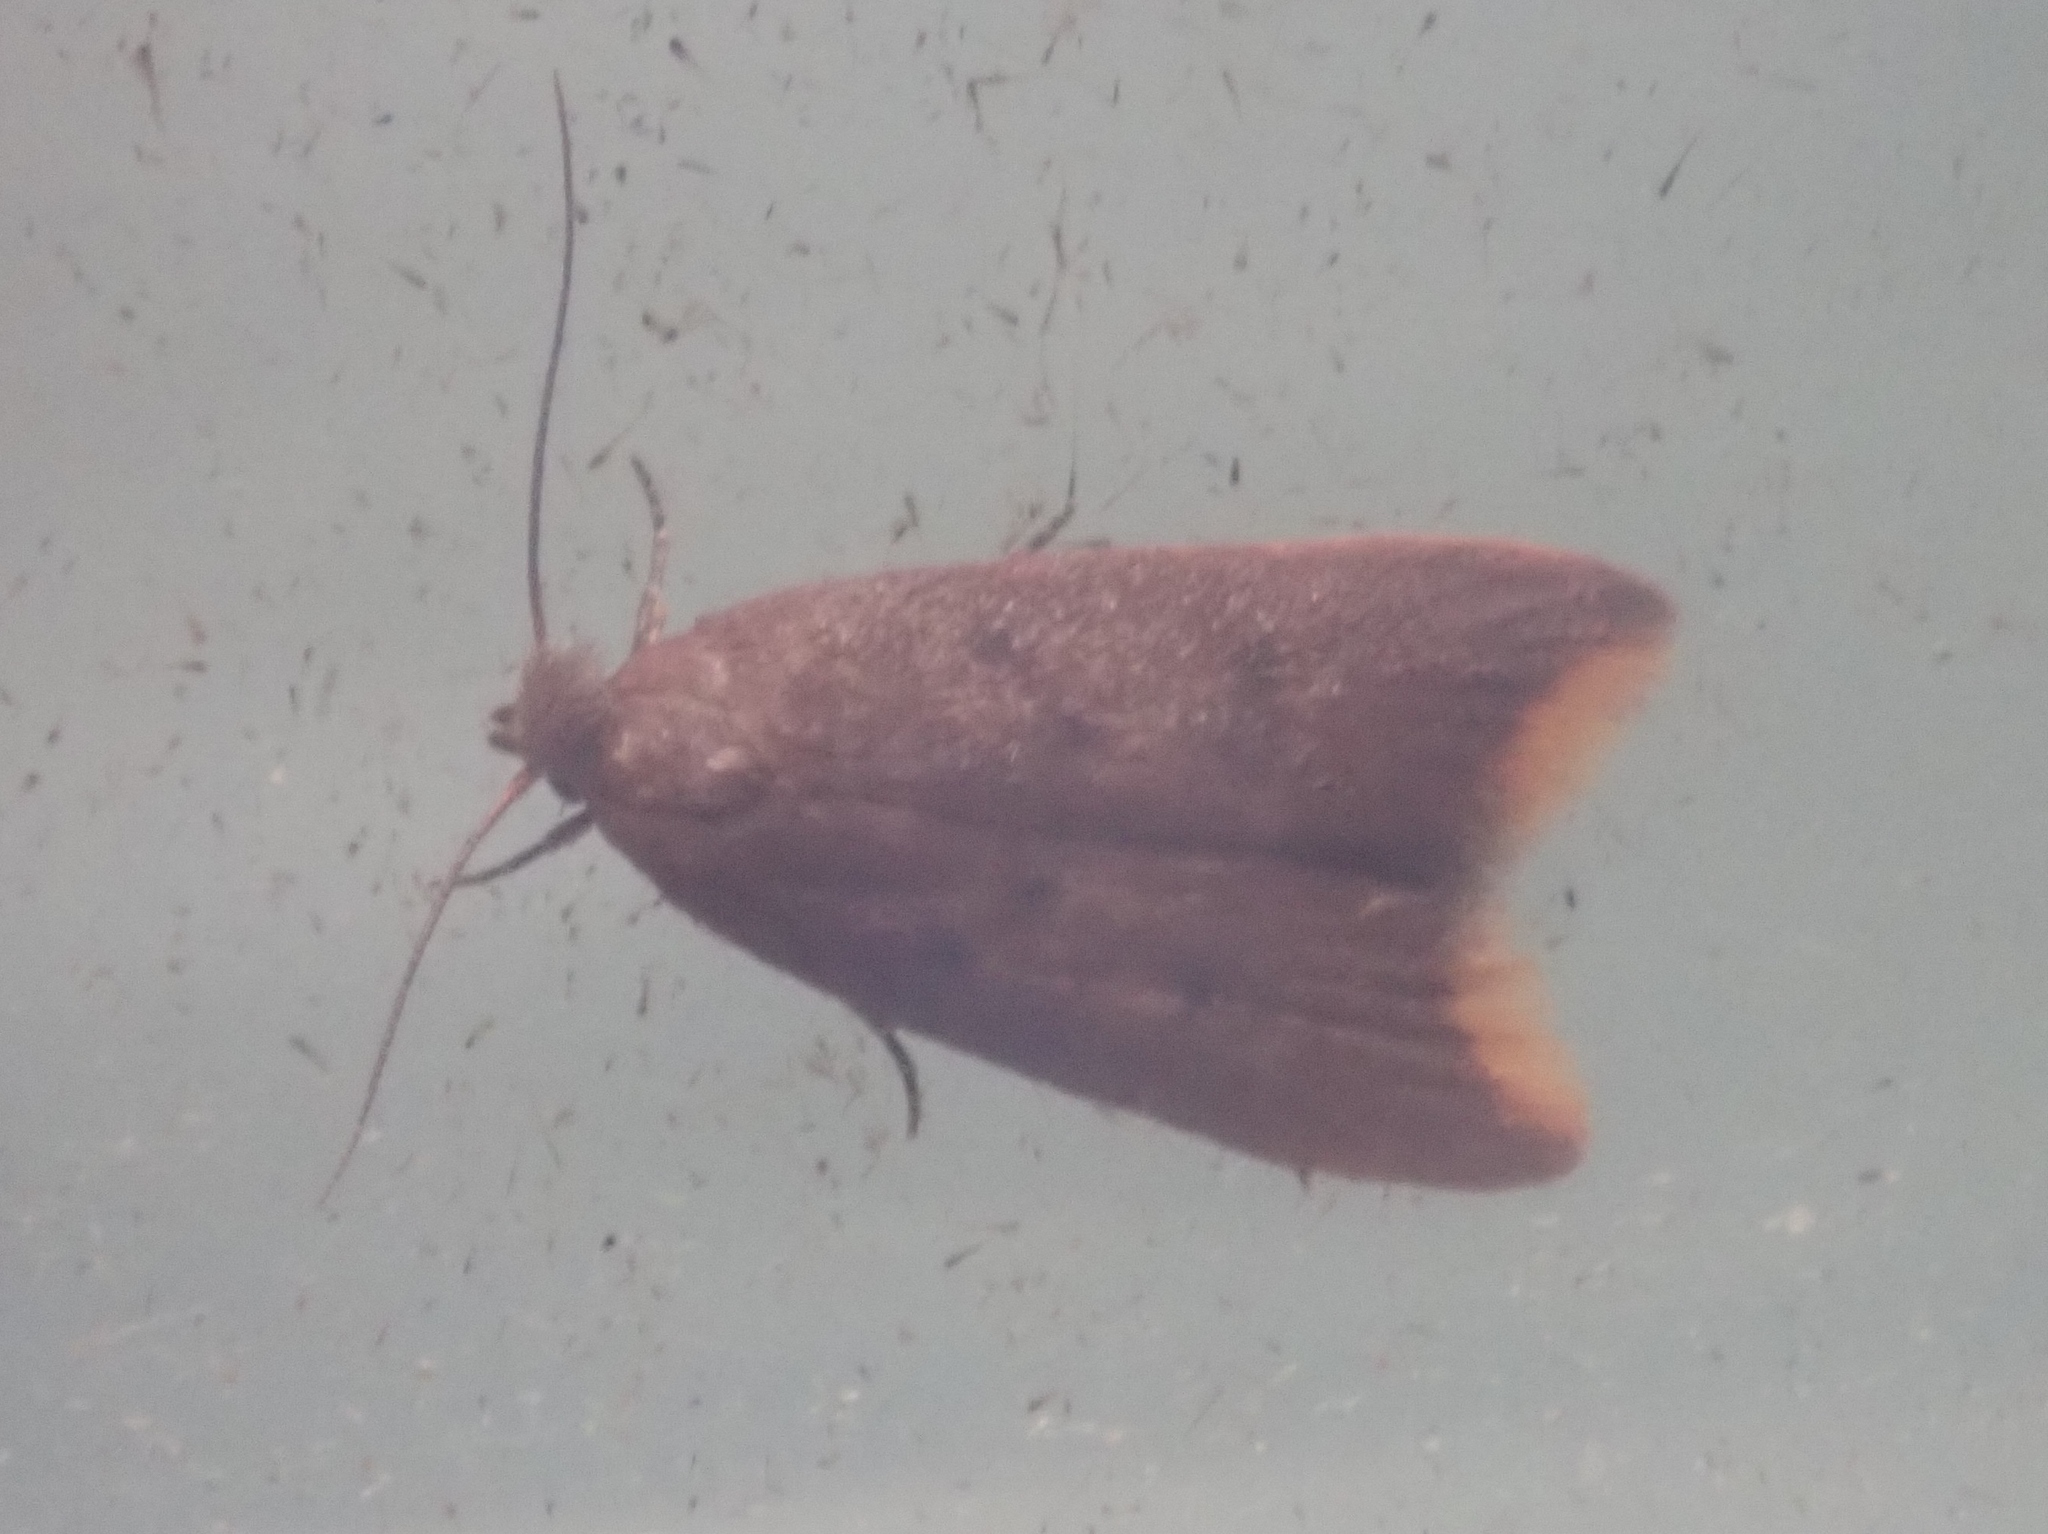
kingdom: Animalia
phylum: Arthropoda
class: Insecta
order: Lepidoptera
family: Oecophoridae
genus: Tachystola
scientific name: Tachystola acroxantha
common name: Ruddy streak
